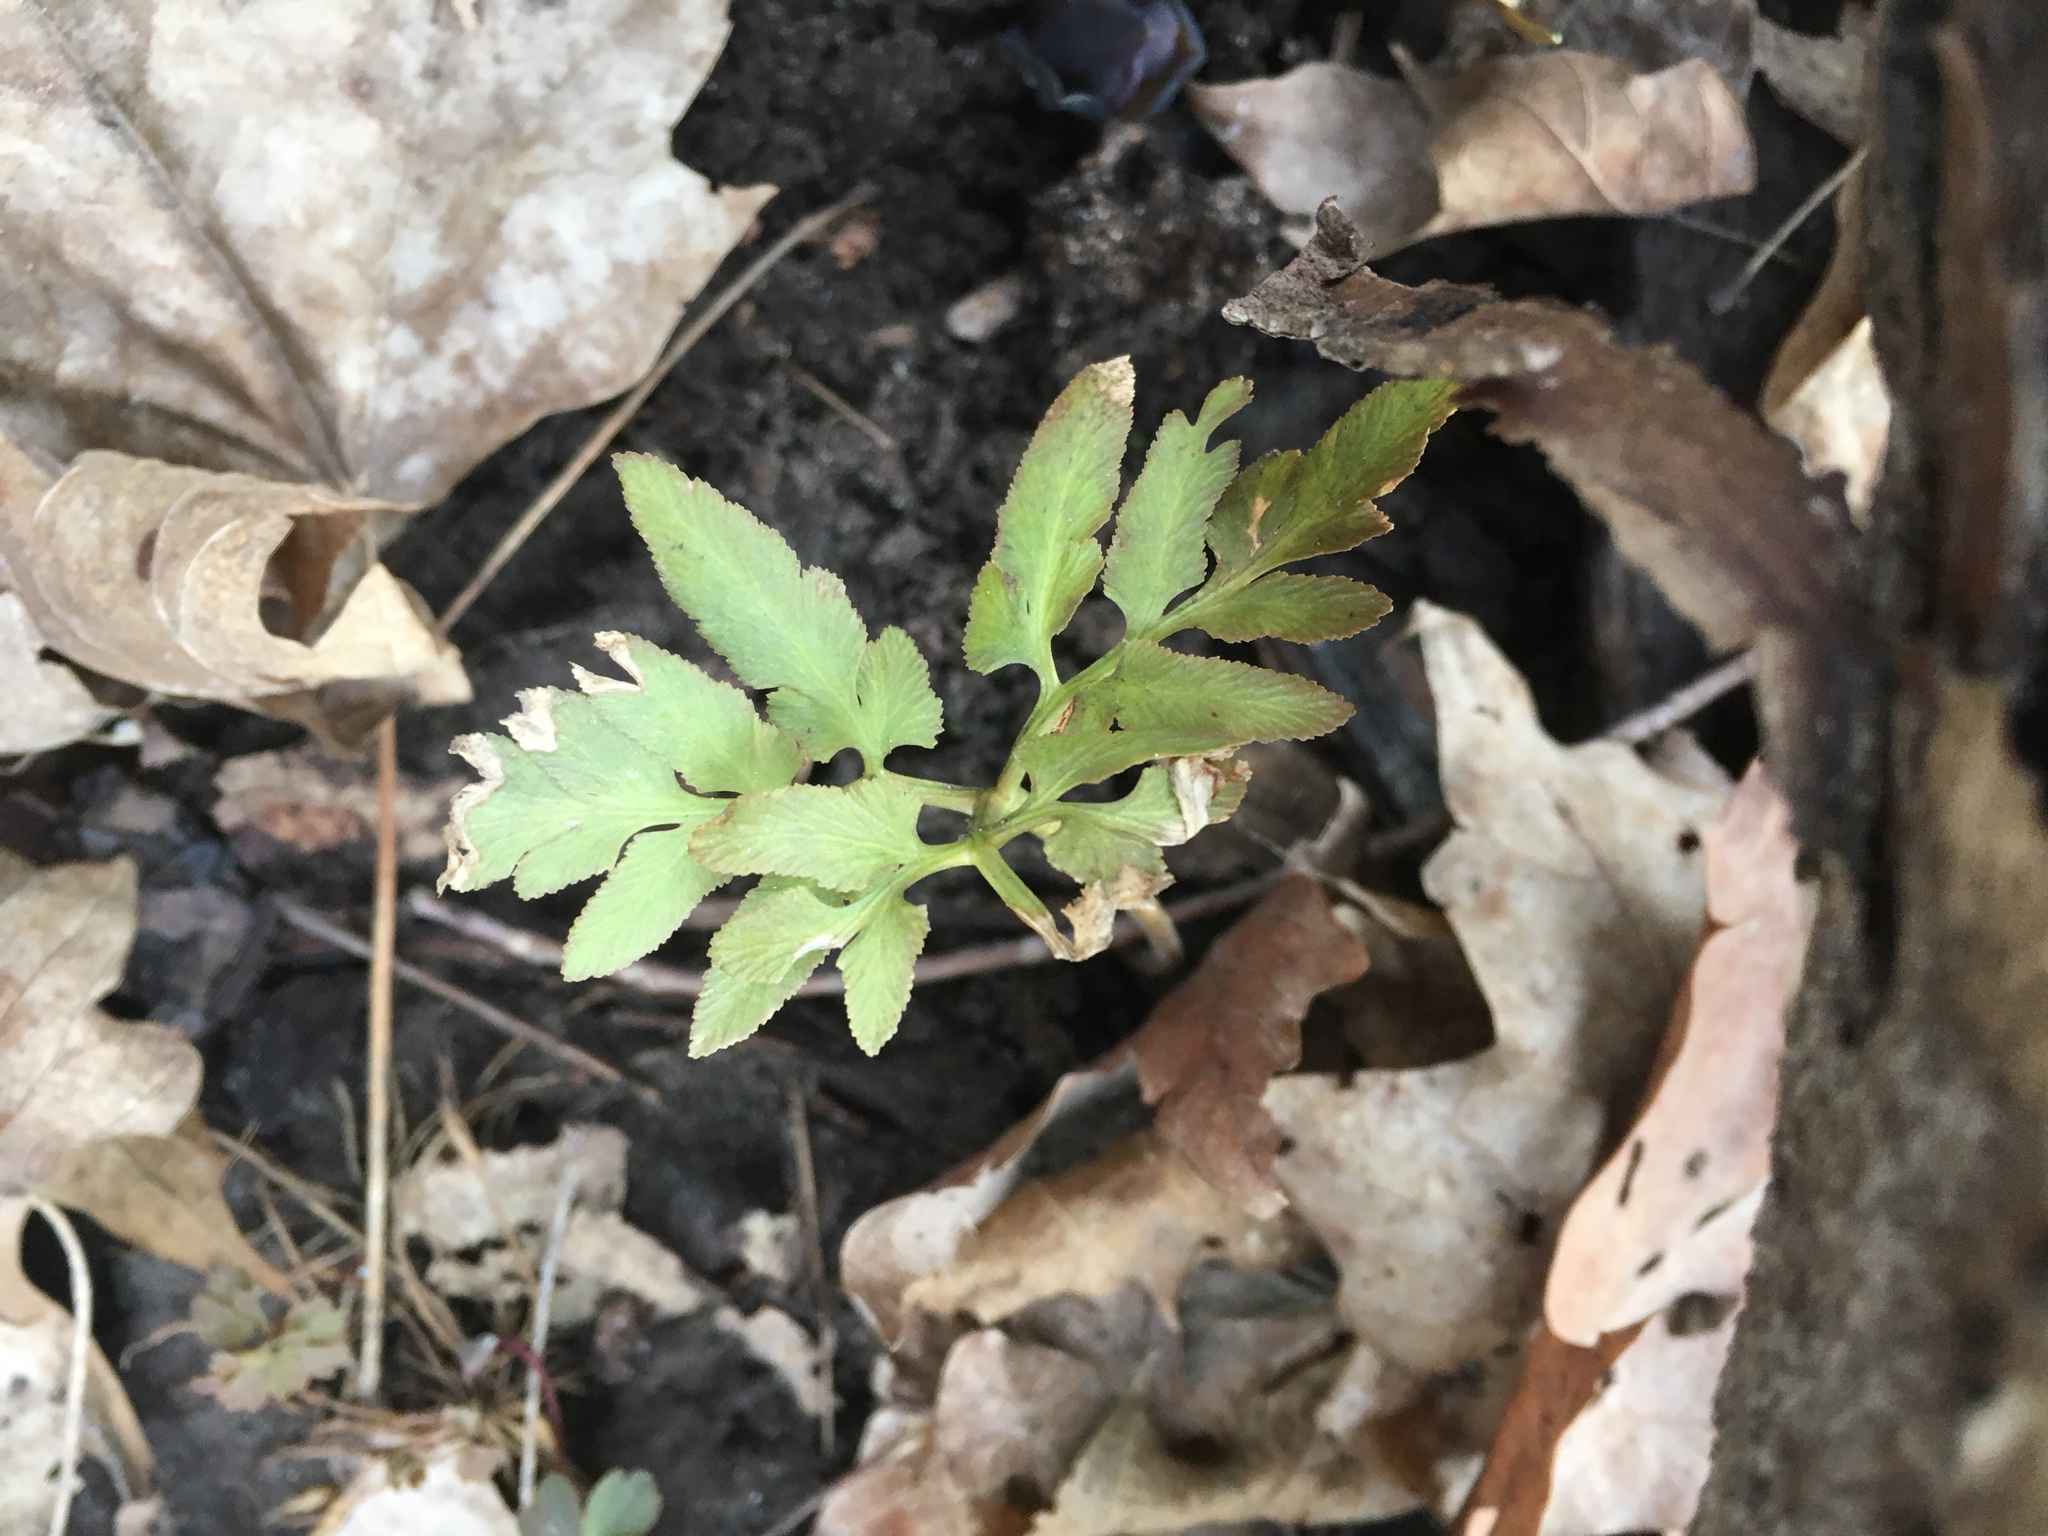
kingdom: Plantae
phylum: Tracheophyta
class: Polypodiopsida
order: Ophioglossales
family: Ophioglossaceae
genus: Sceptridium
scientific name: Sceptridium dissectum
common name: Cut-leaved grapefern
